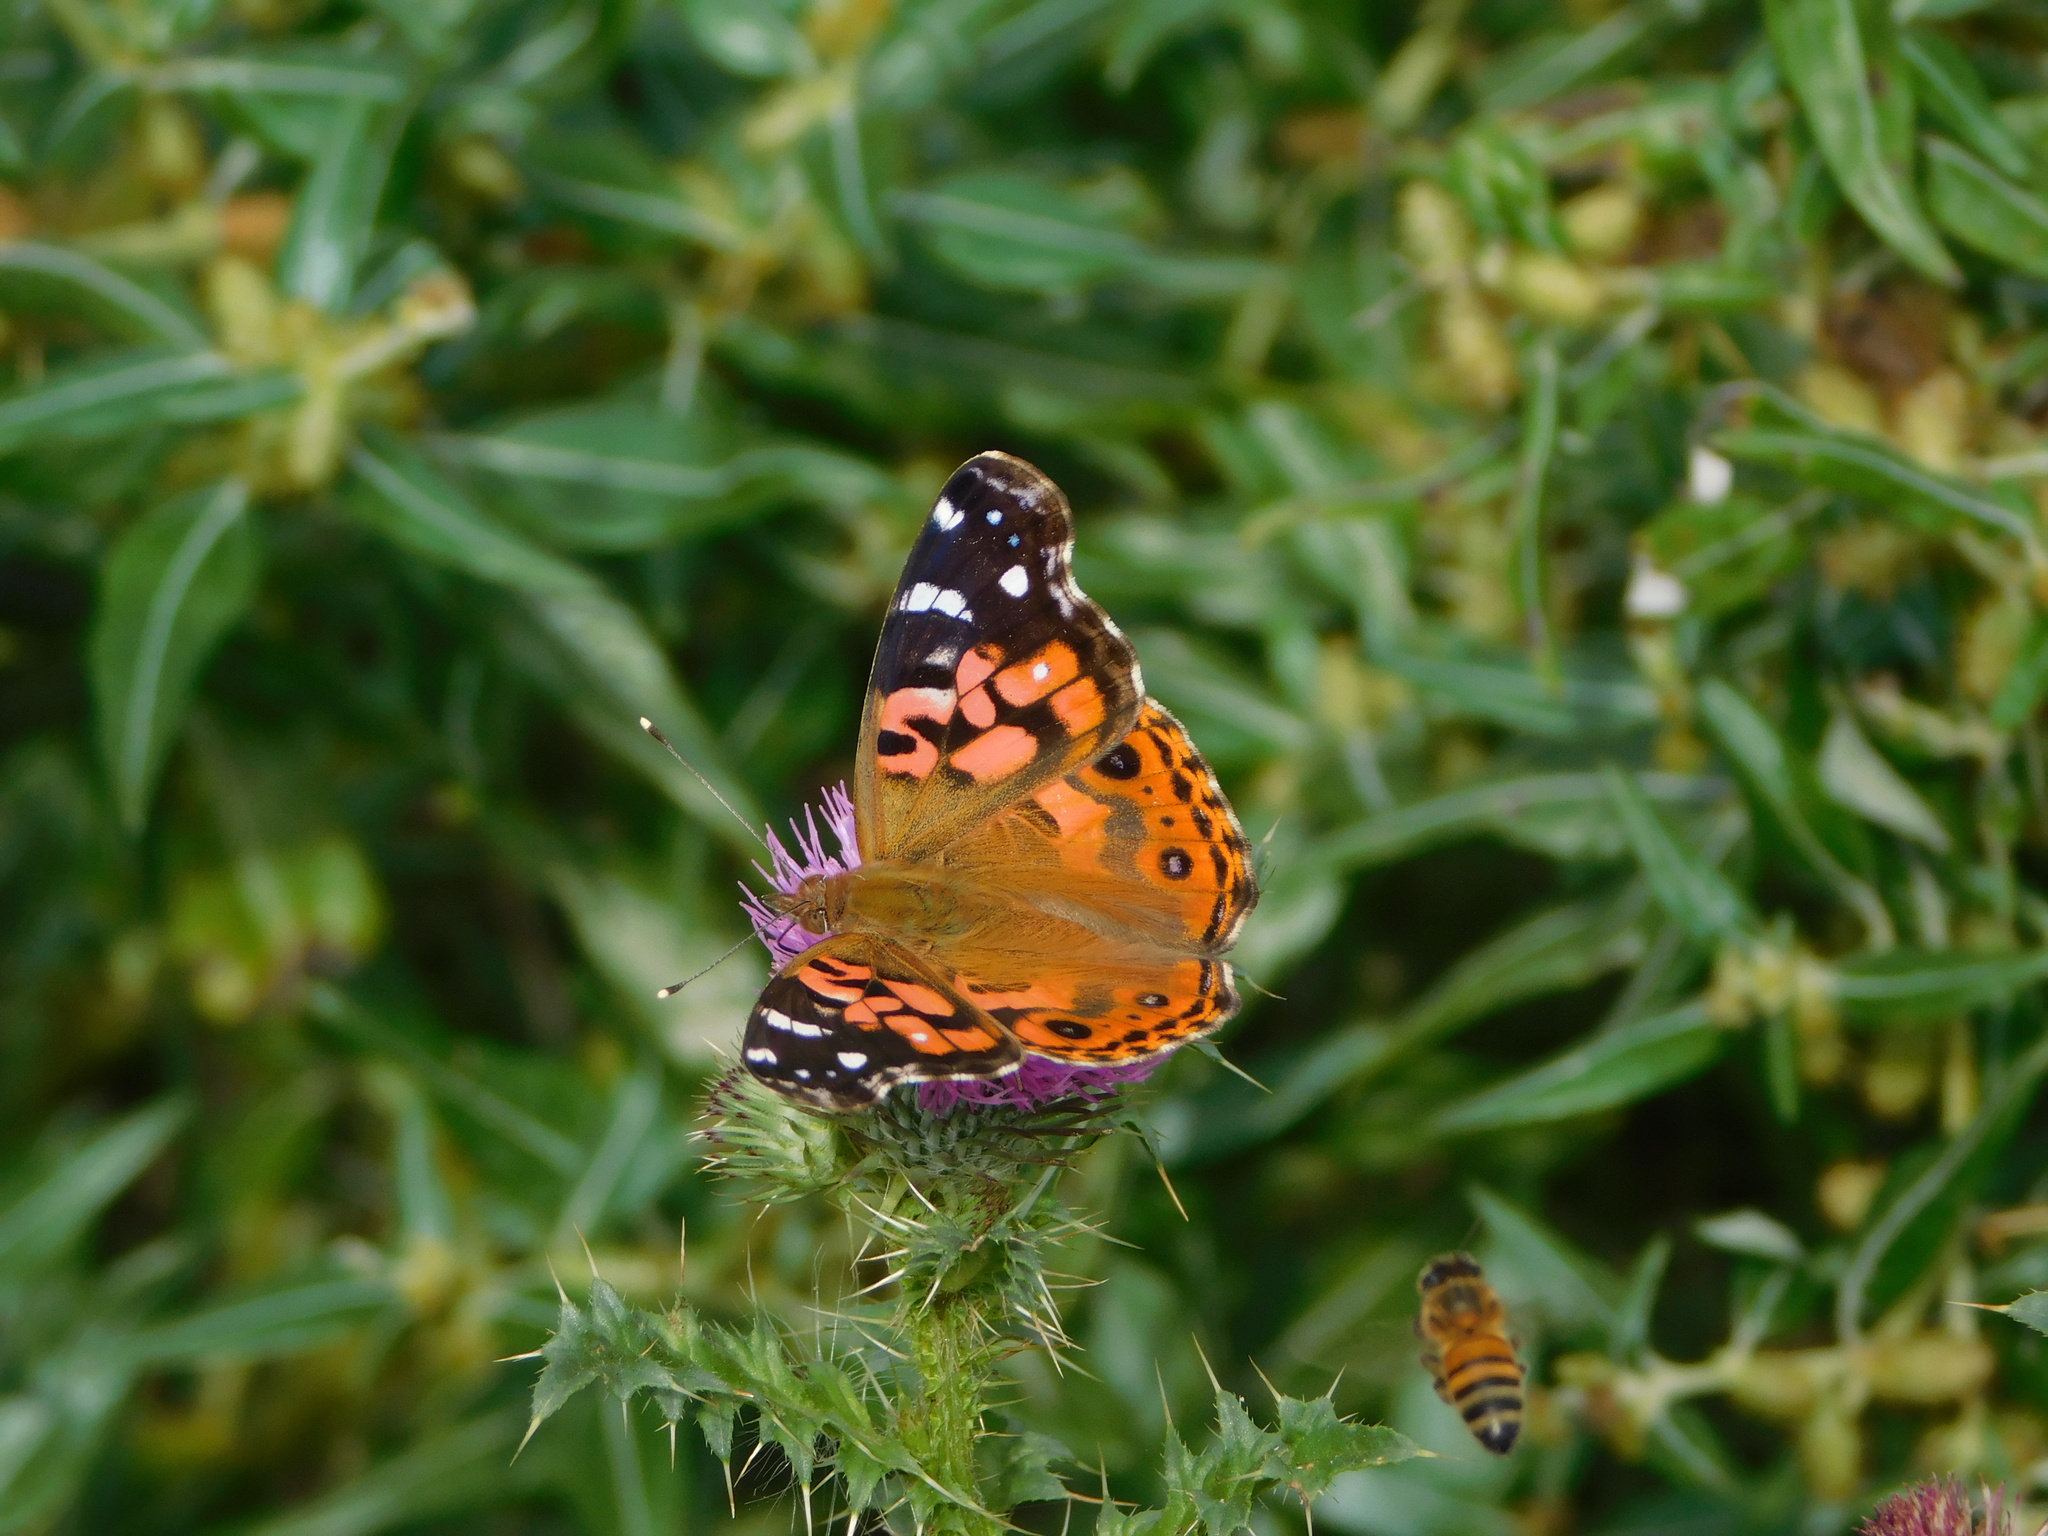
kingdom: Animalia
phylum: Arthropoda
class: Insecta
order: Lepidoptera
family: Nymphalidae
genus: Vanessa
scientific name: Vanessa braziliensis
